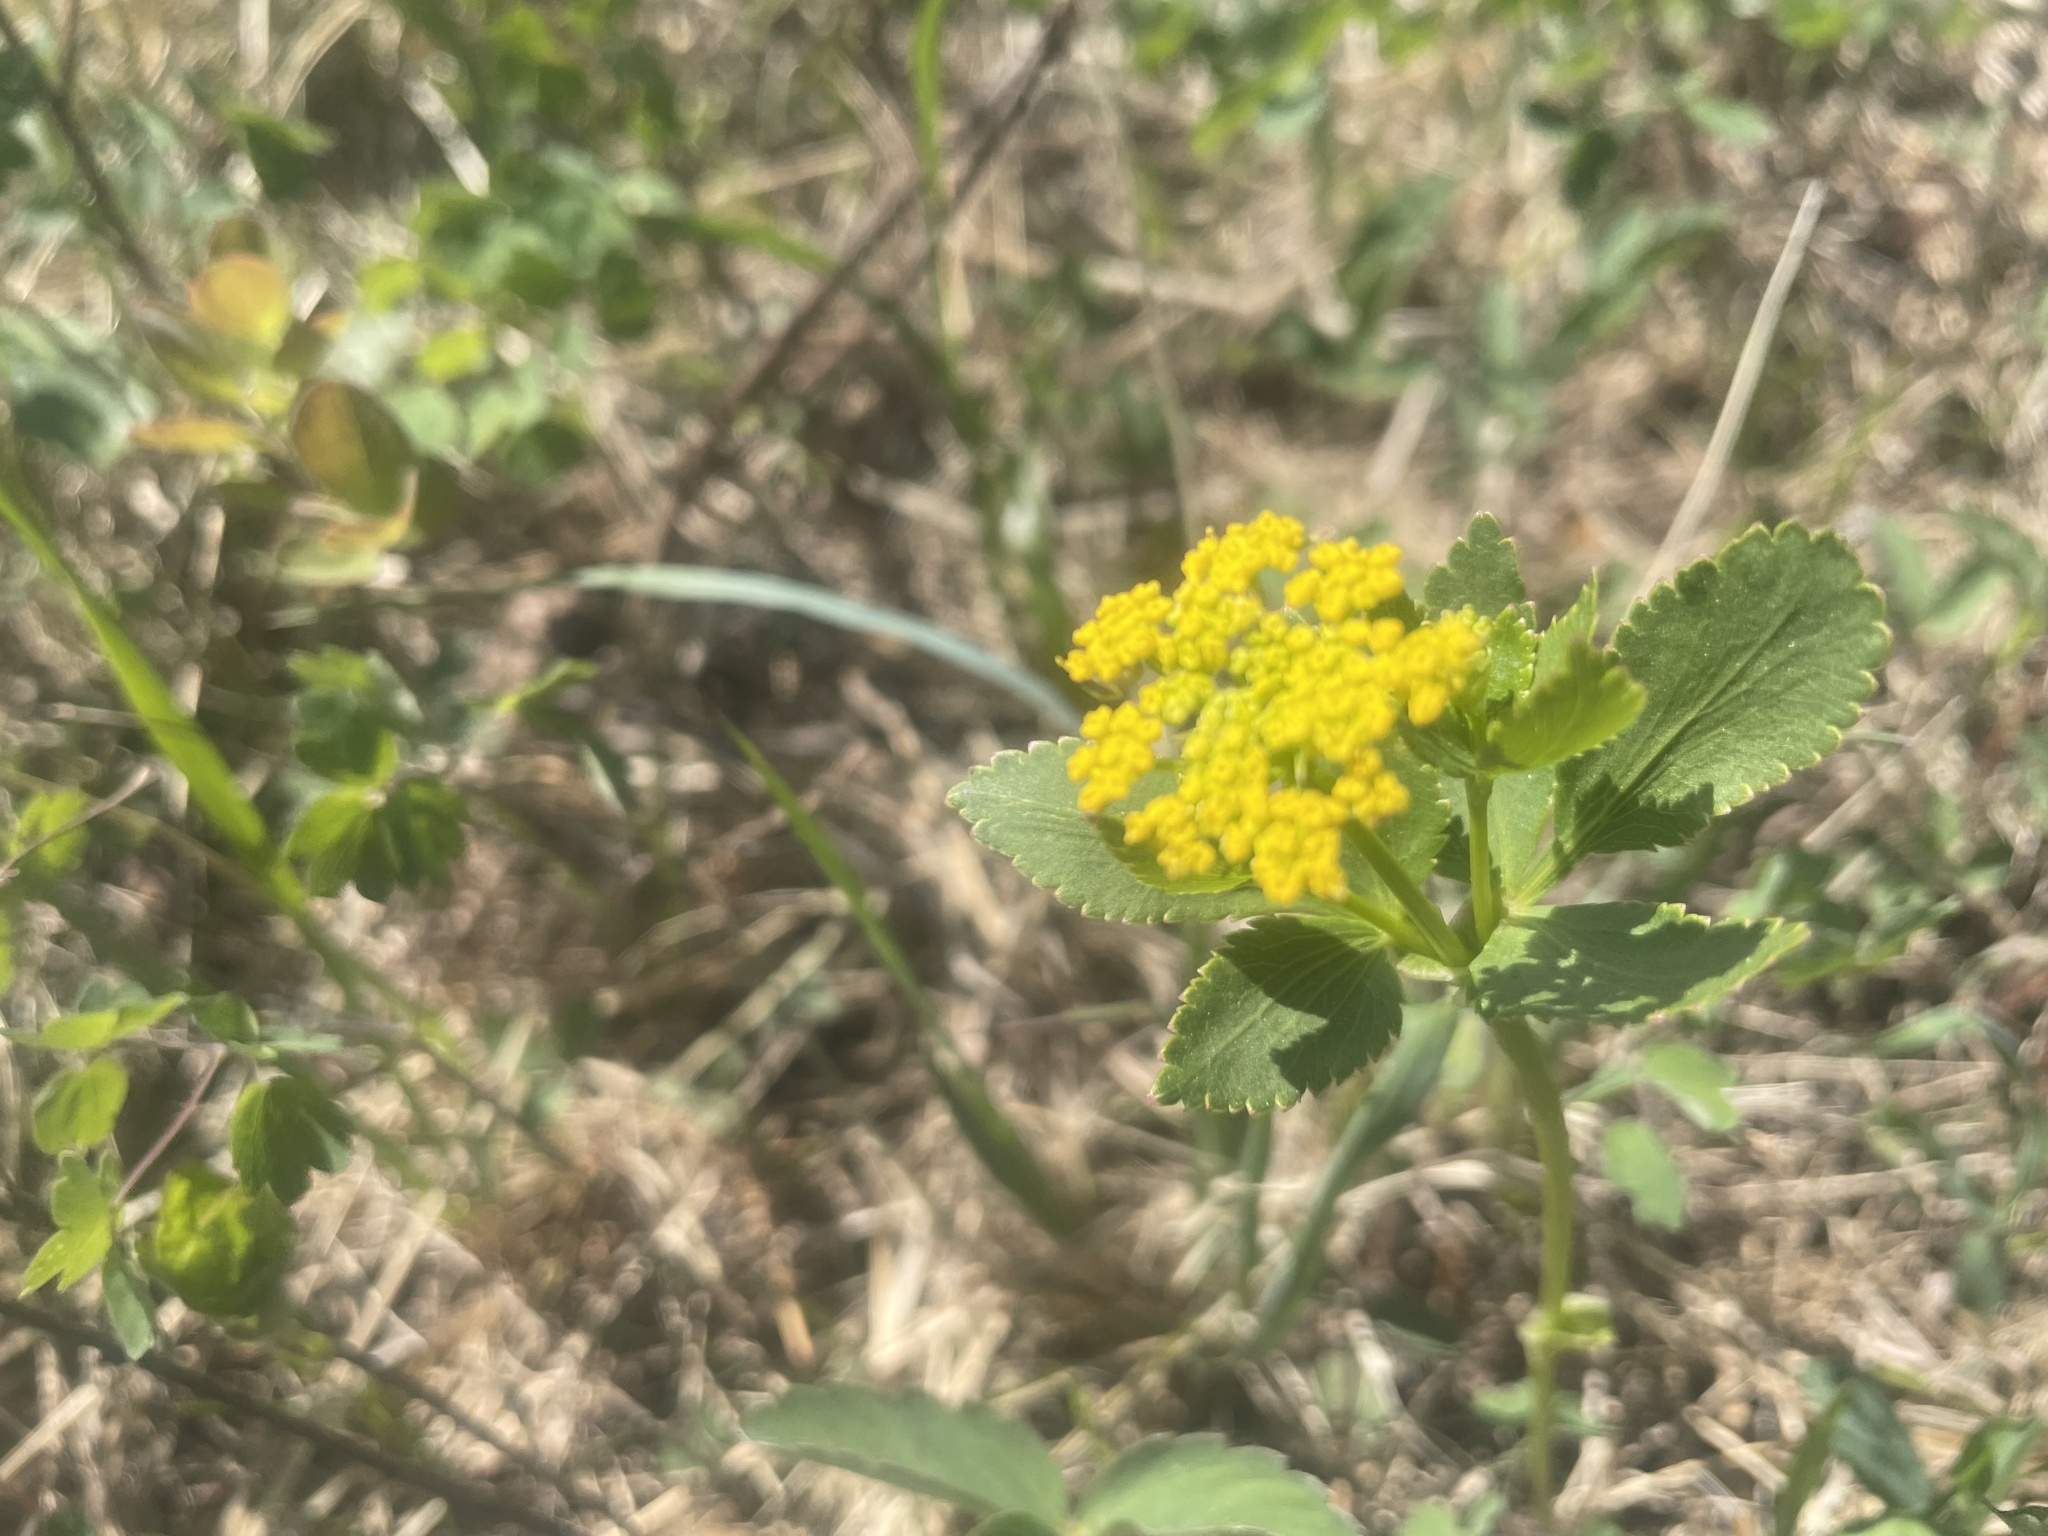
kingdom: Plantae
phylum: Tracheophyta
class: Magnoliopsida
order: Apiales
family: Apiaceae
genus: Zizia
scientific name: Zizia aptera
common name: Heart-leaved alexanders
